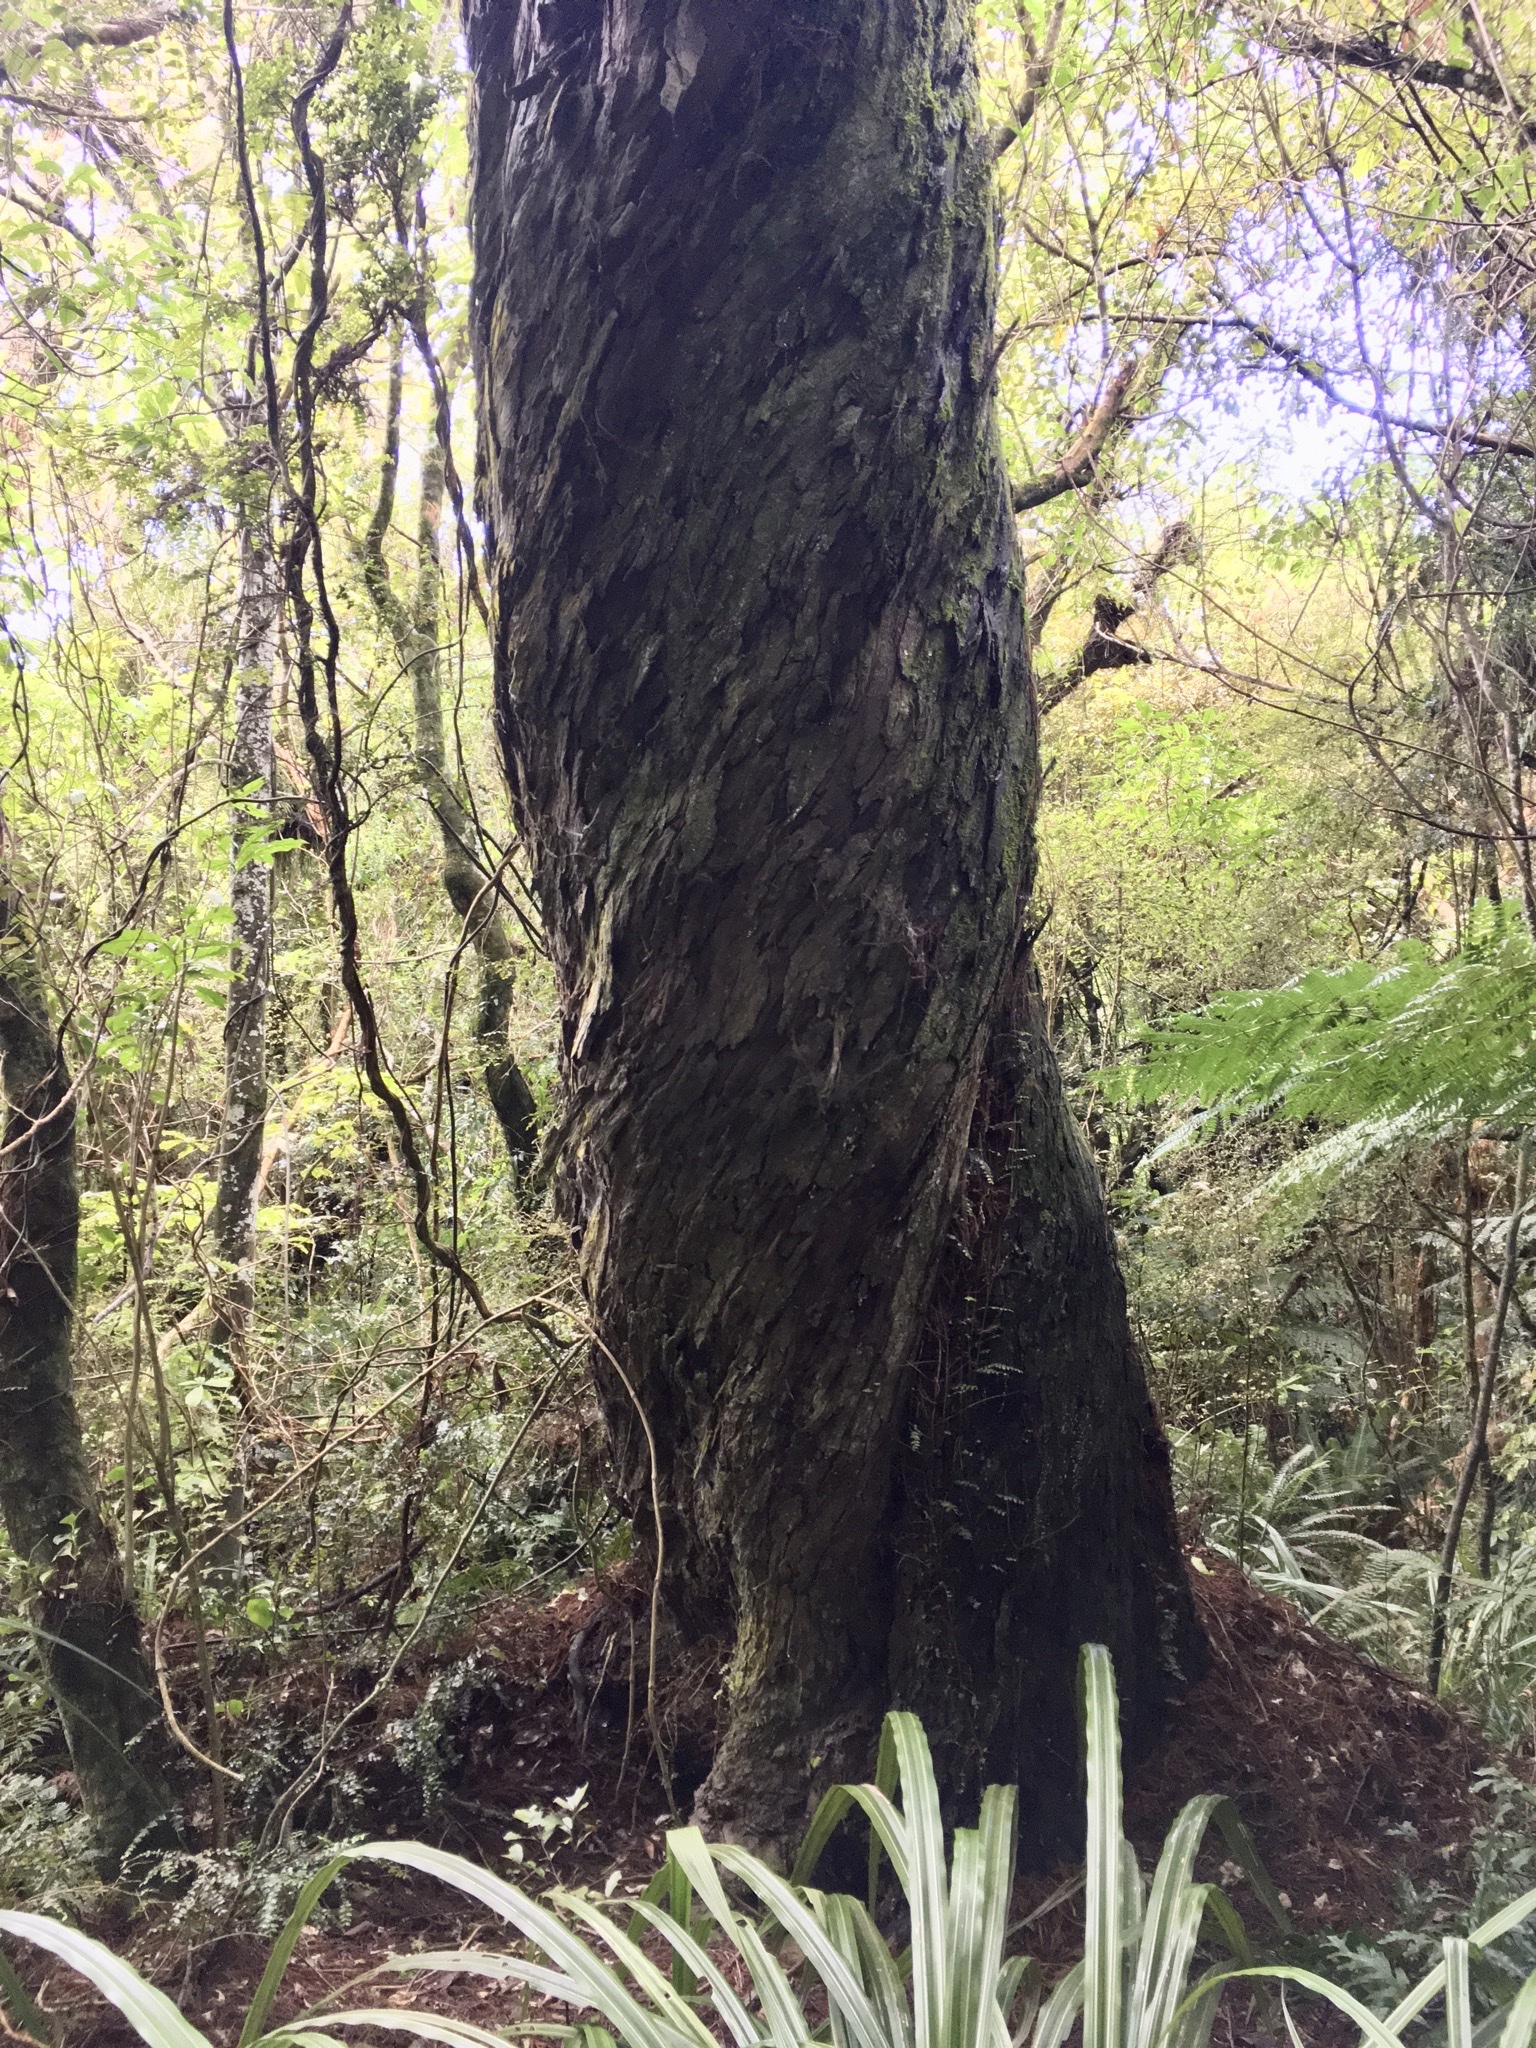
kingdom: Plantae
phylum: Tracheophyta
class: Pinopsida
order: Pinales
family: Podocarpaceae
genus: Dacrydium
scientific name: Dacrydium cupressinum
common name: Red pine
